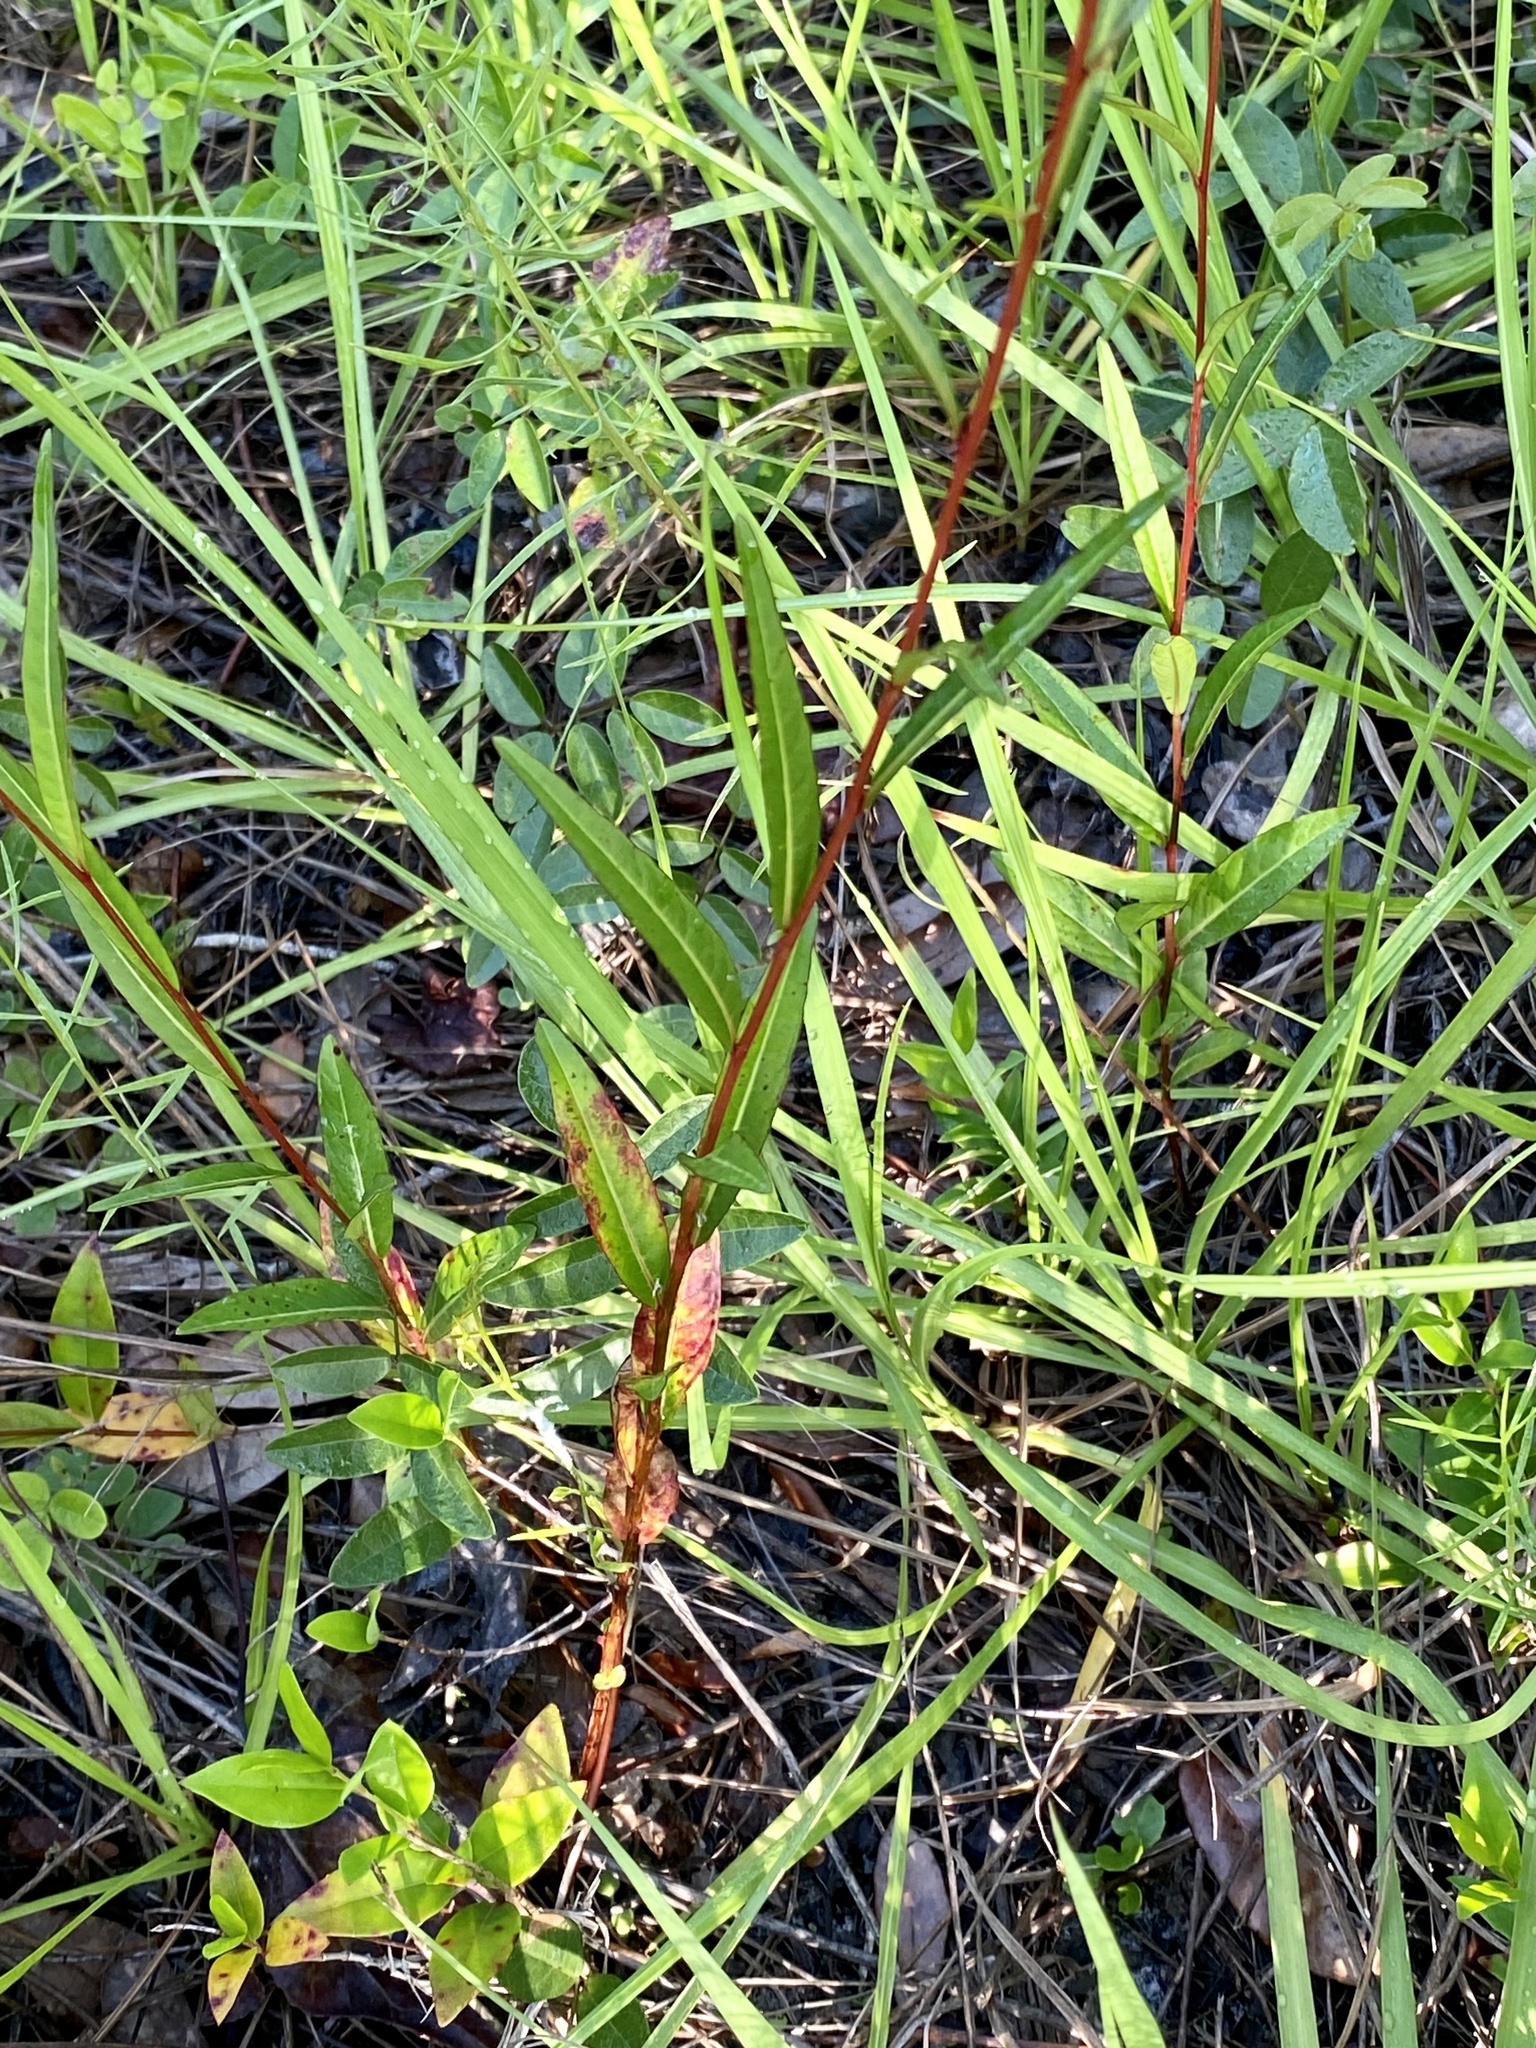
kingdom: Plantae
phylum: Tracheophyta
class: Magnoliopsida
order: Myrtales
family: Onagraceae
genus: Ludwigia
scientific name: Ludwigia maritima
